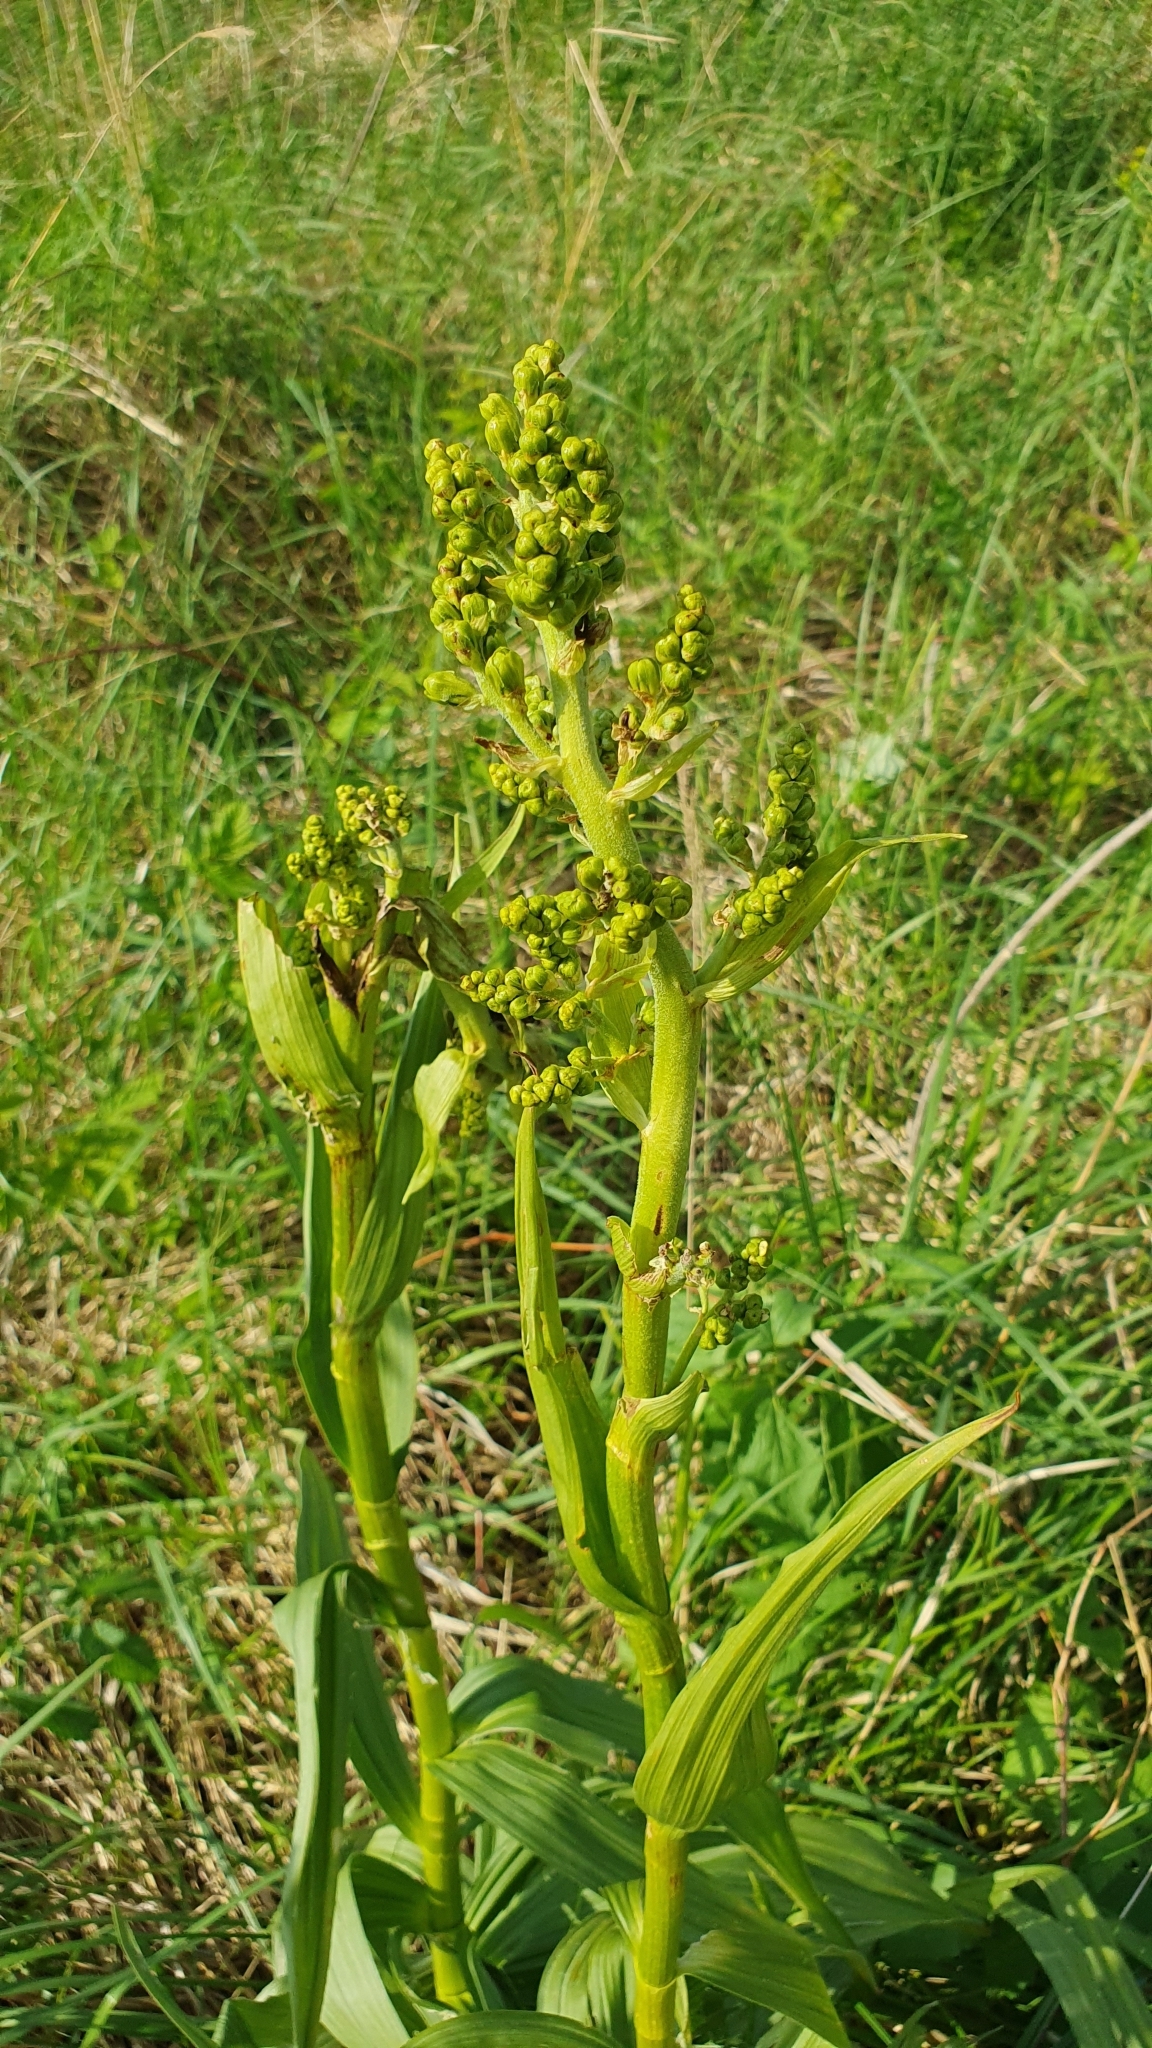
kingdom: Plantae
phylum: Tracheophyta
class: Liliopsida
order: Liliales
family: Melanthiaceae
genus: Veratrum
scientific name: Veratrum lobelianum
